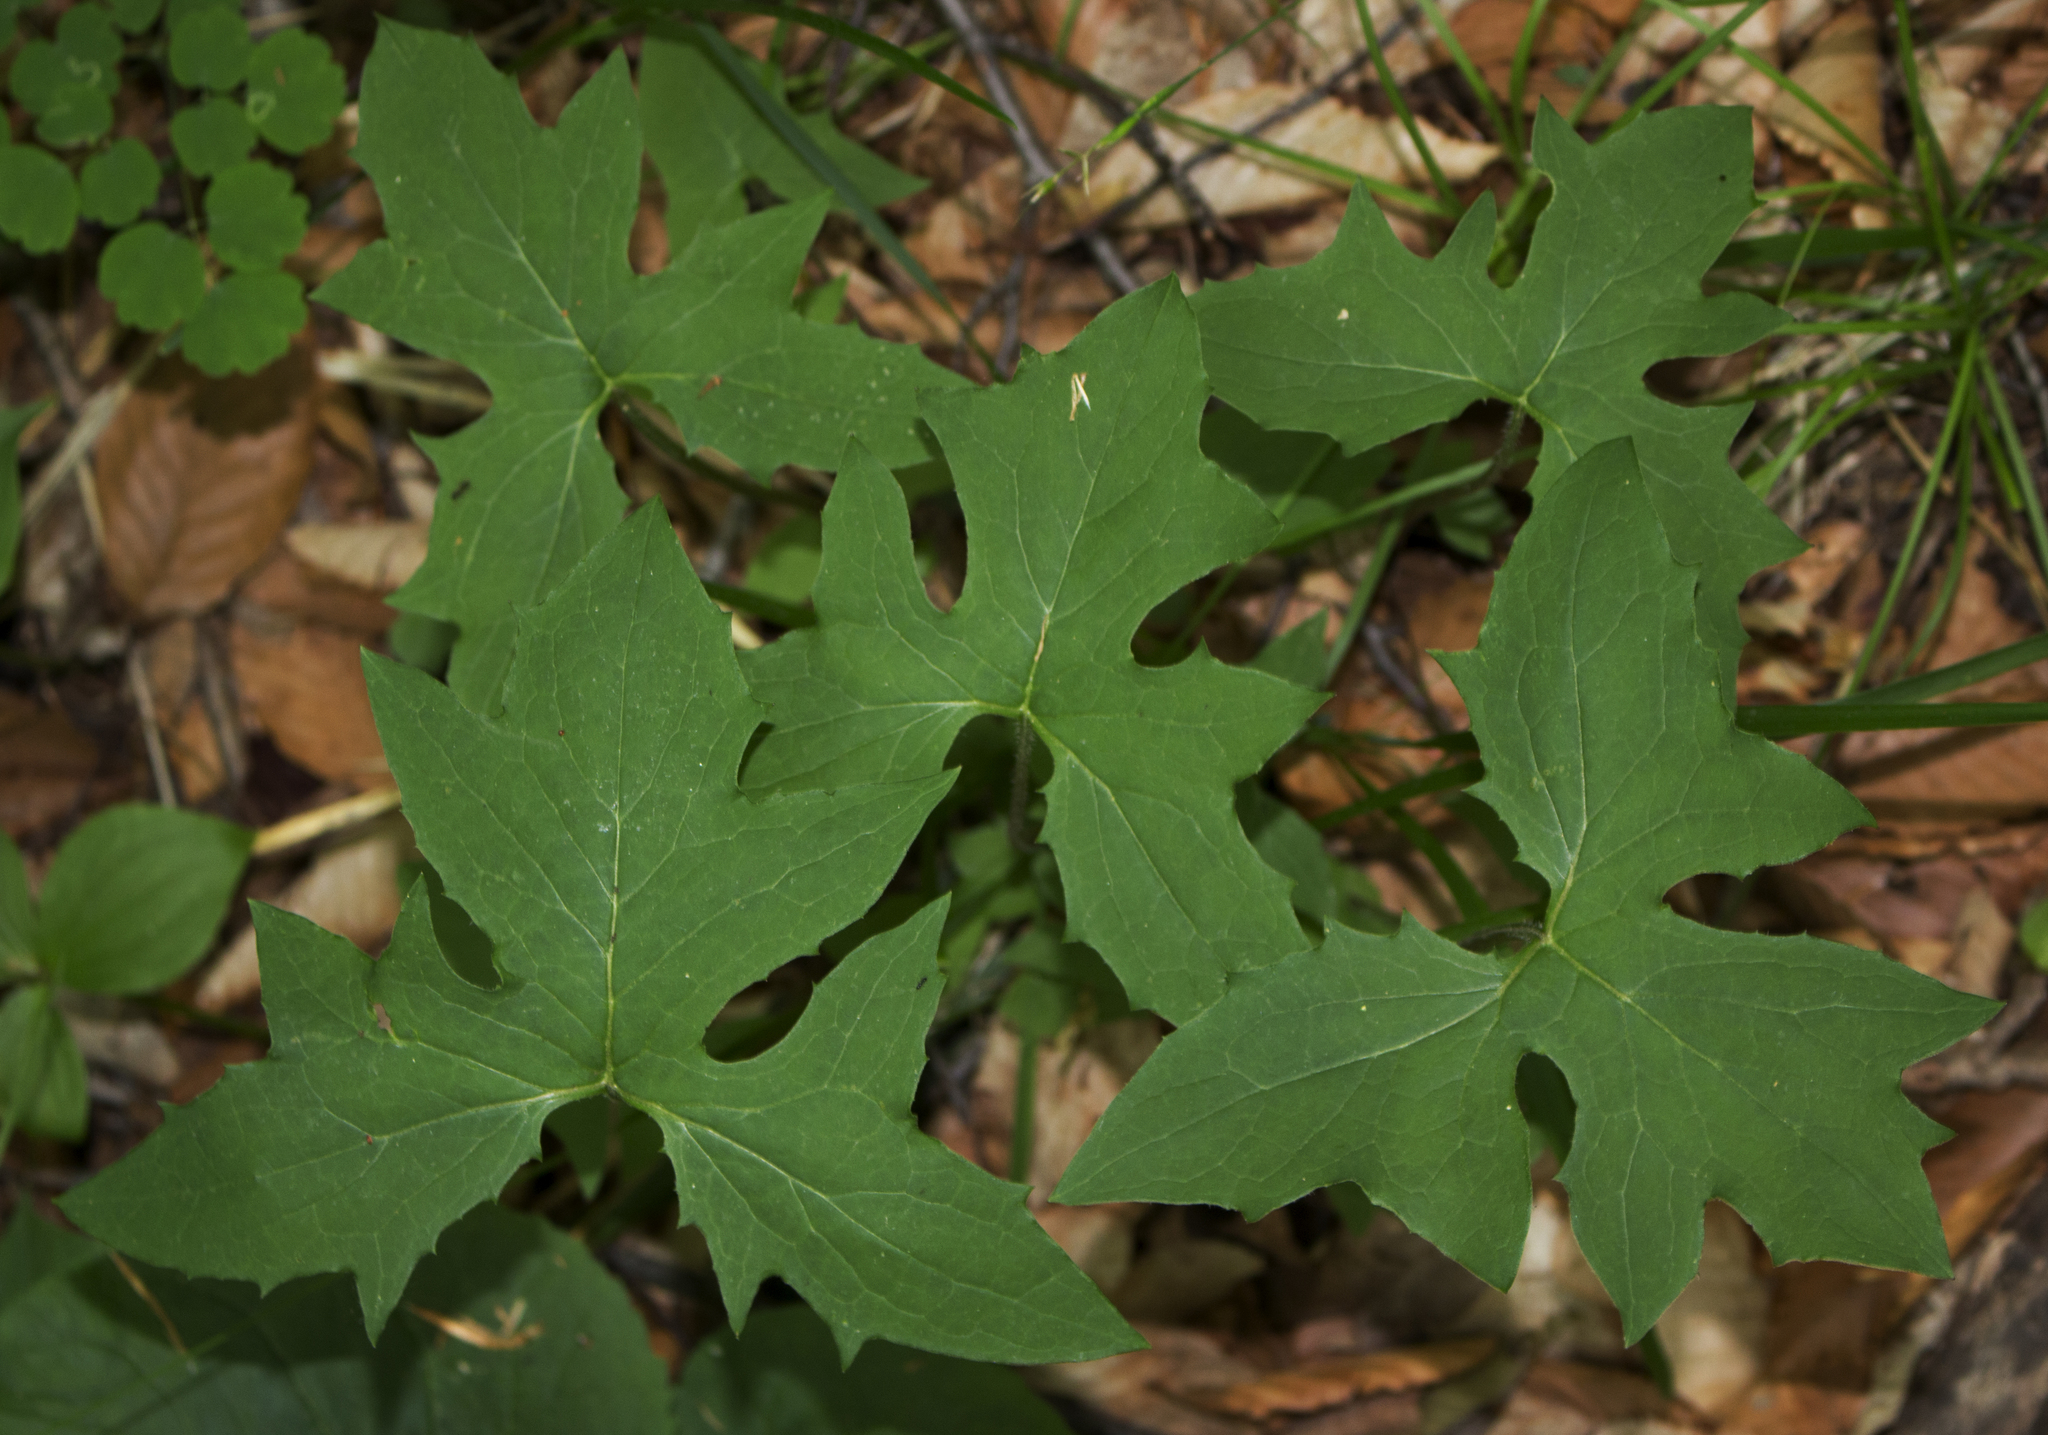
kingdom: Plantae
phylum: Tracheophyta
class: Magnoliopsida
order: Asterales
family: Asteraceae
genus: Nabalus
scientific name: Nabalus albus
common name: White rattlesnakeroot
